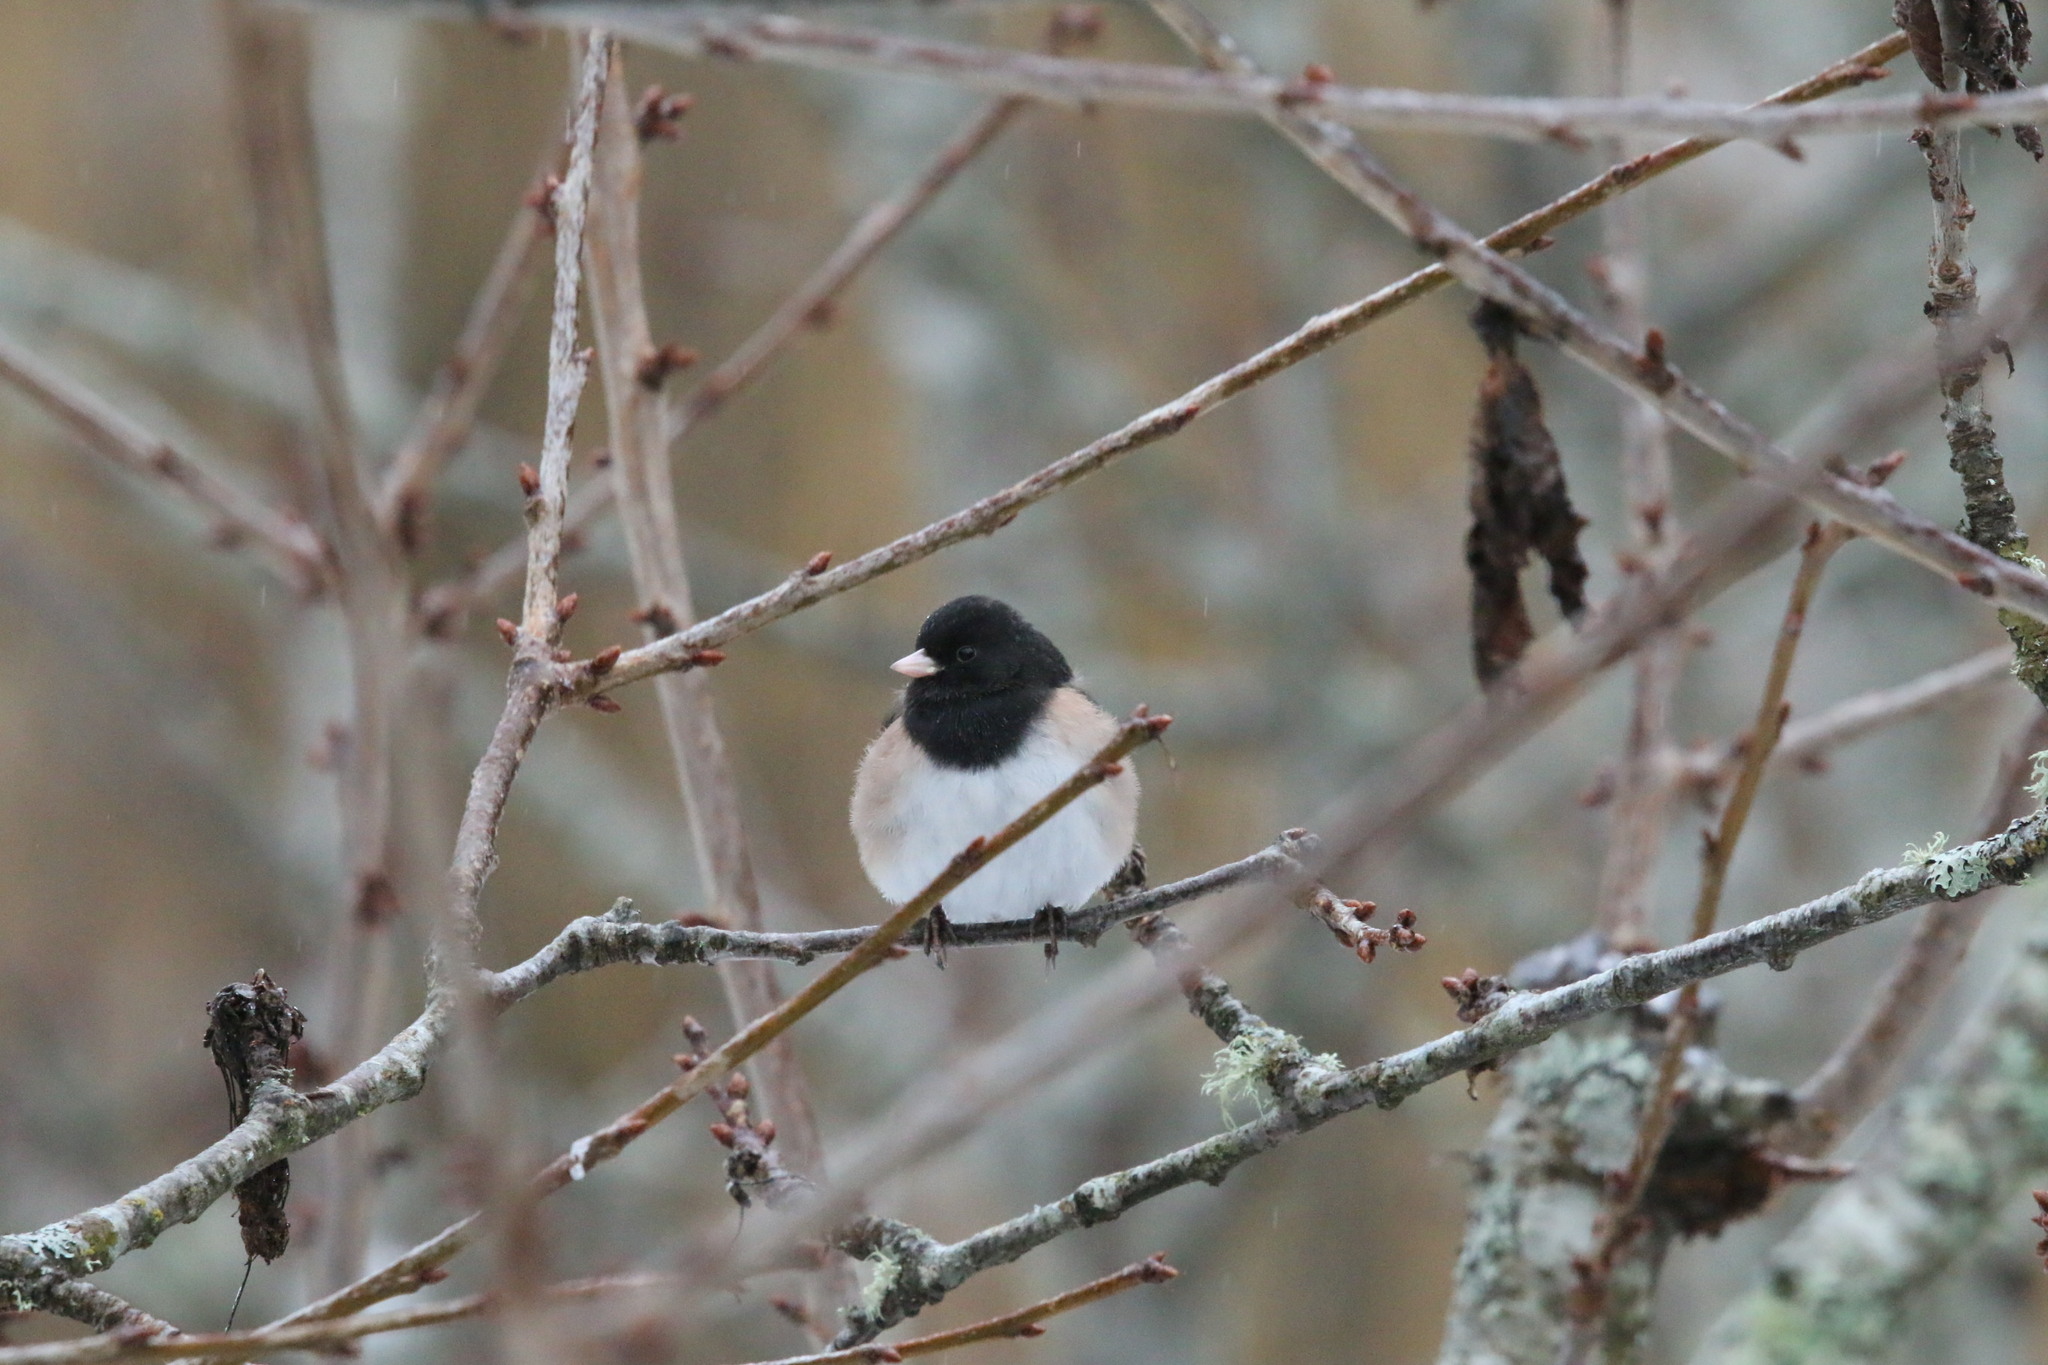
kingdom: Animalia
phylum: Chordata
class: Aves
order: Passeriformes
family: Passerellidae
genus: Junco
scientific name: Junco hyemalis
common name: Dark-eyed junco
